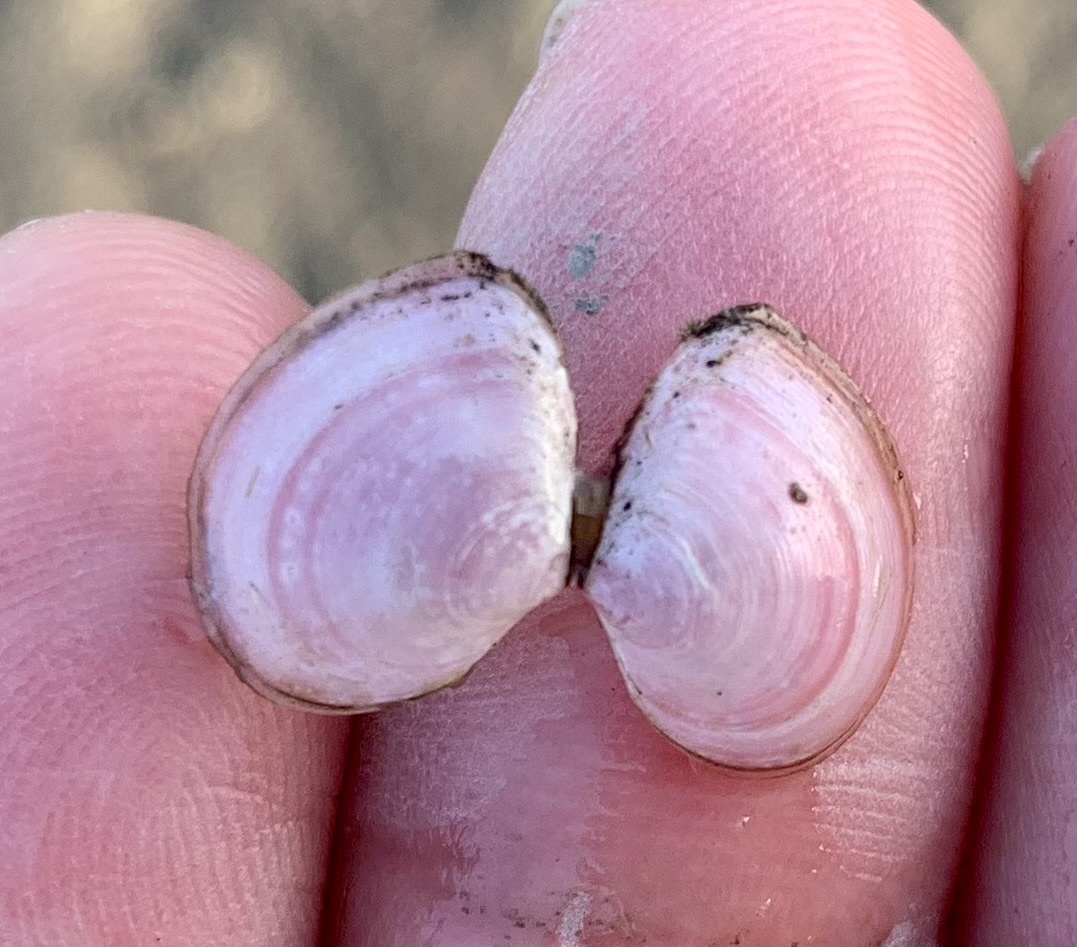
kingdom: Animalia
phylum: Mollusca
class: Bivalvia
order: Cardiida
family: Tellinidae
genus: Macoma
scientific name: Macoma balthica
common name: Baltic tellin
